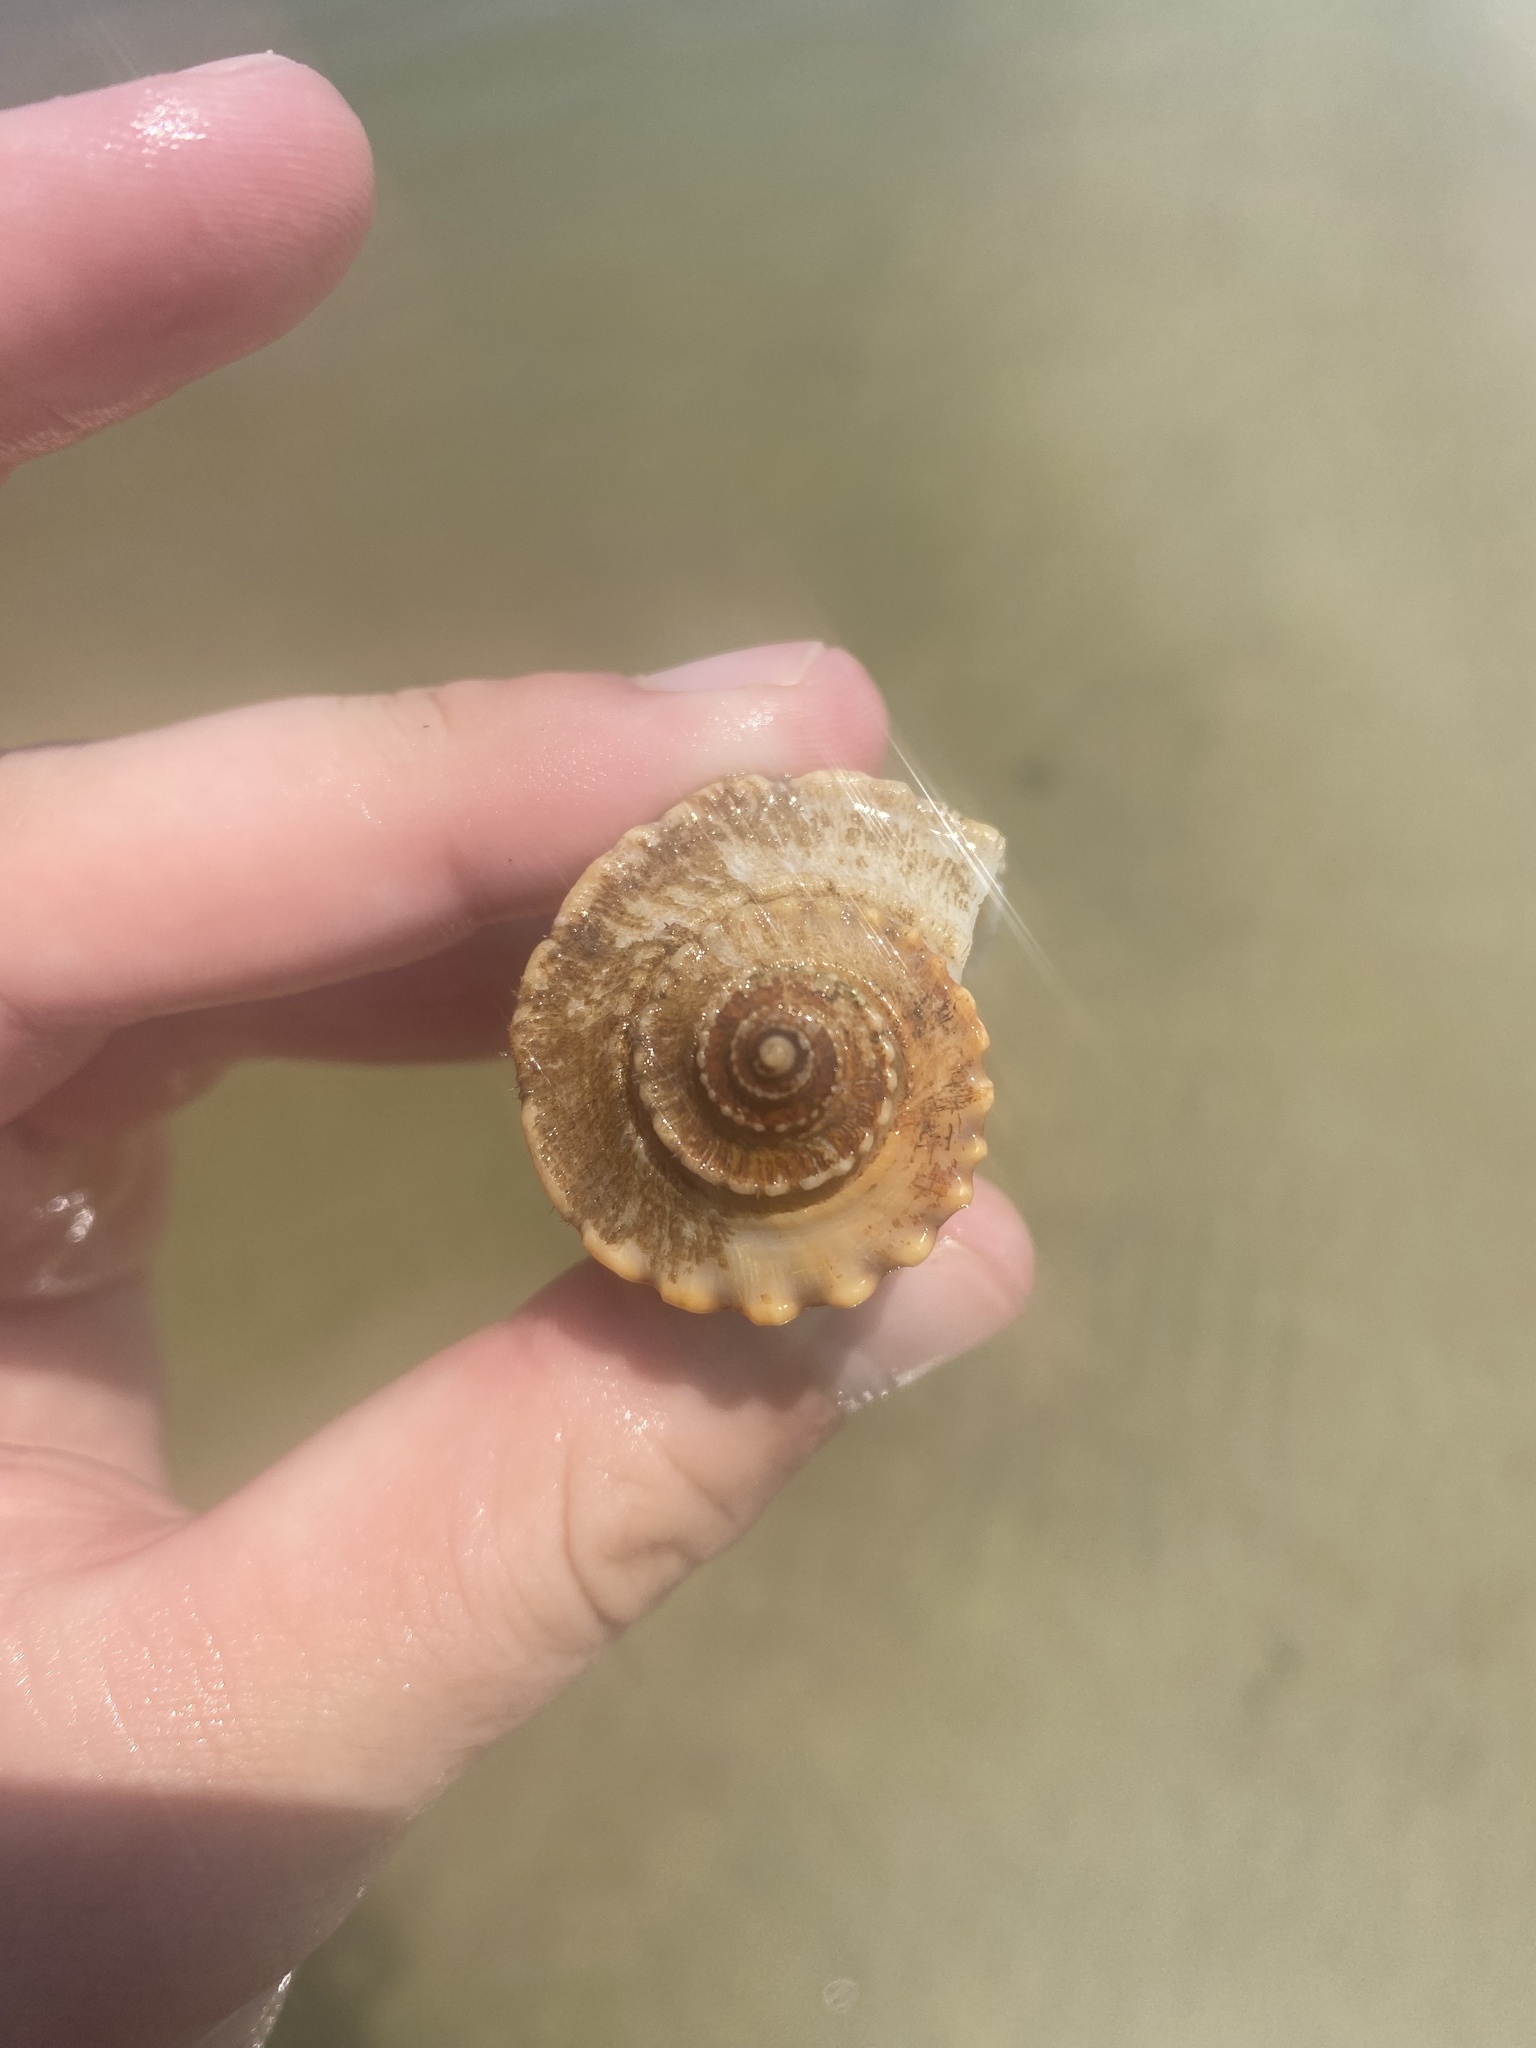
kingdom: Animalia
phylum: Mollusca
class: Gastropoda
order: Neogastropoda
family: Busyconidae
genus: Busycotypus
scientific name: Busycotypus canaliculatus
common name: Channeled whelk
